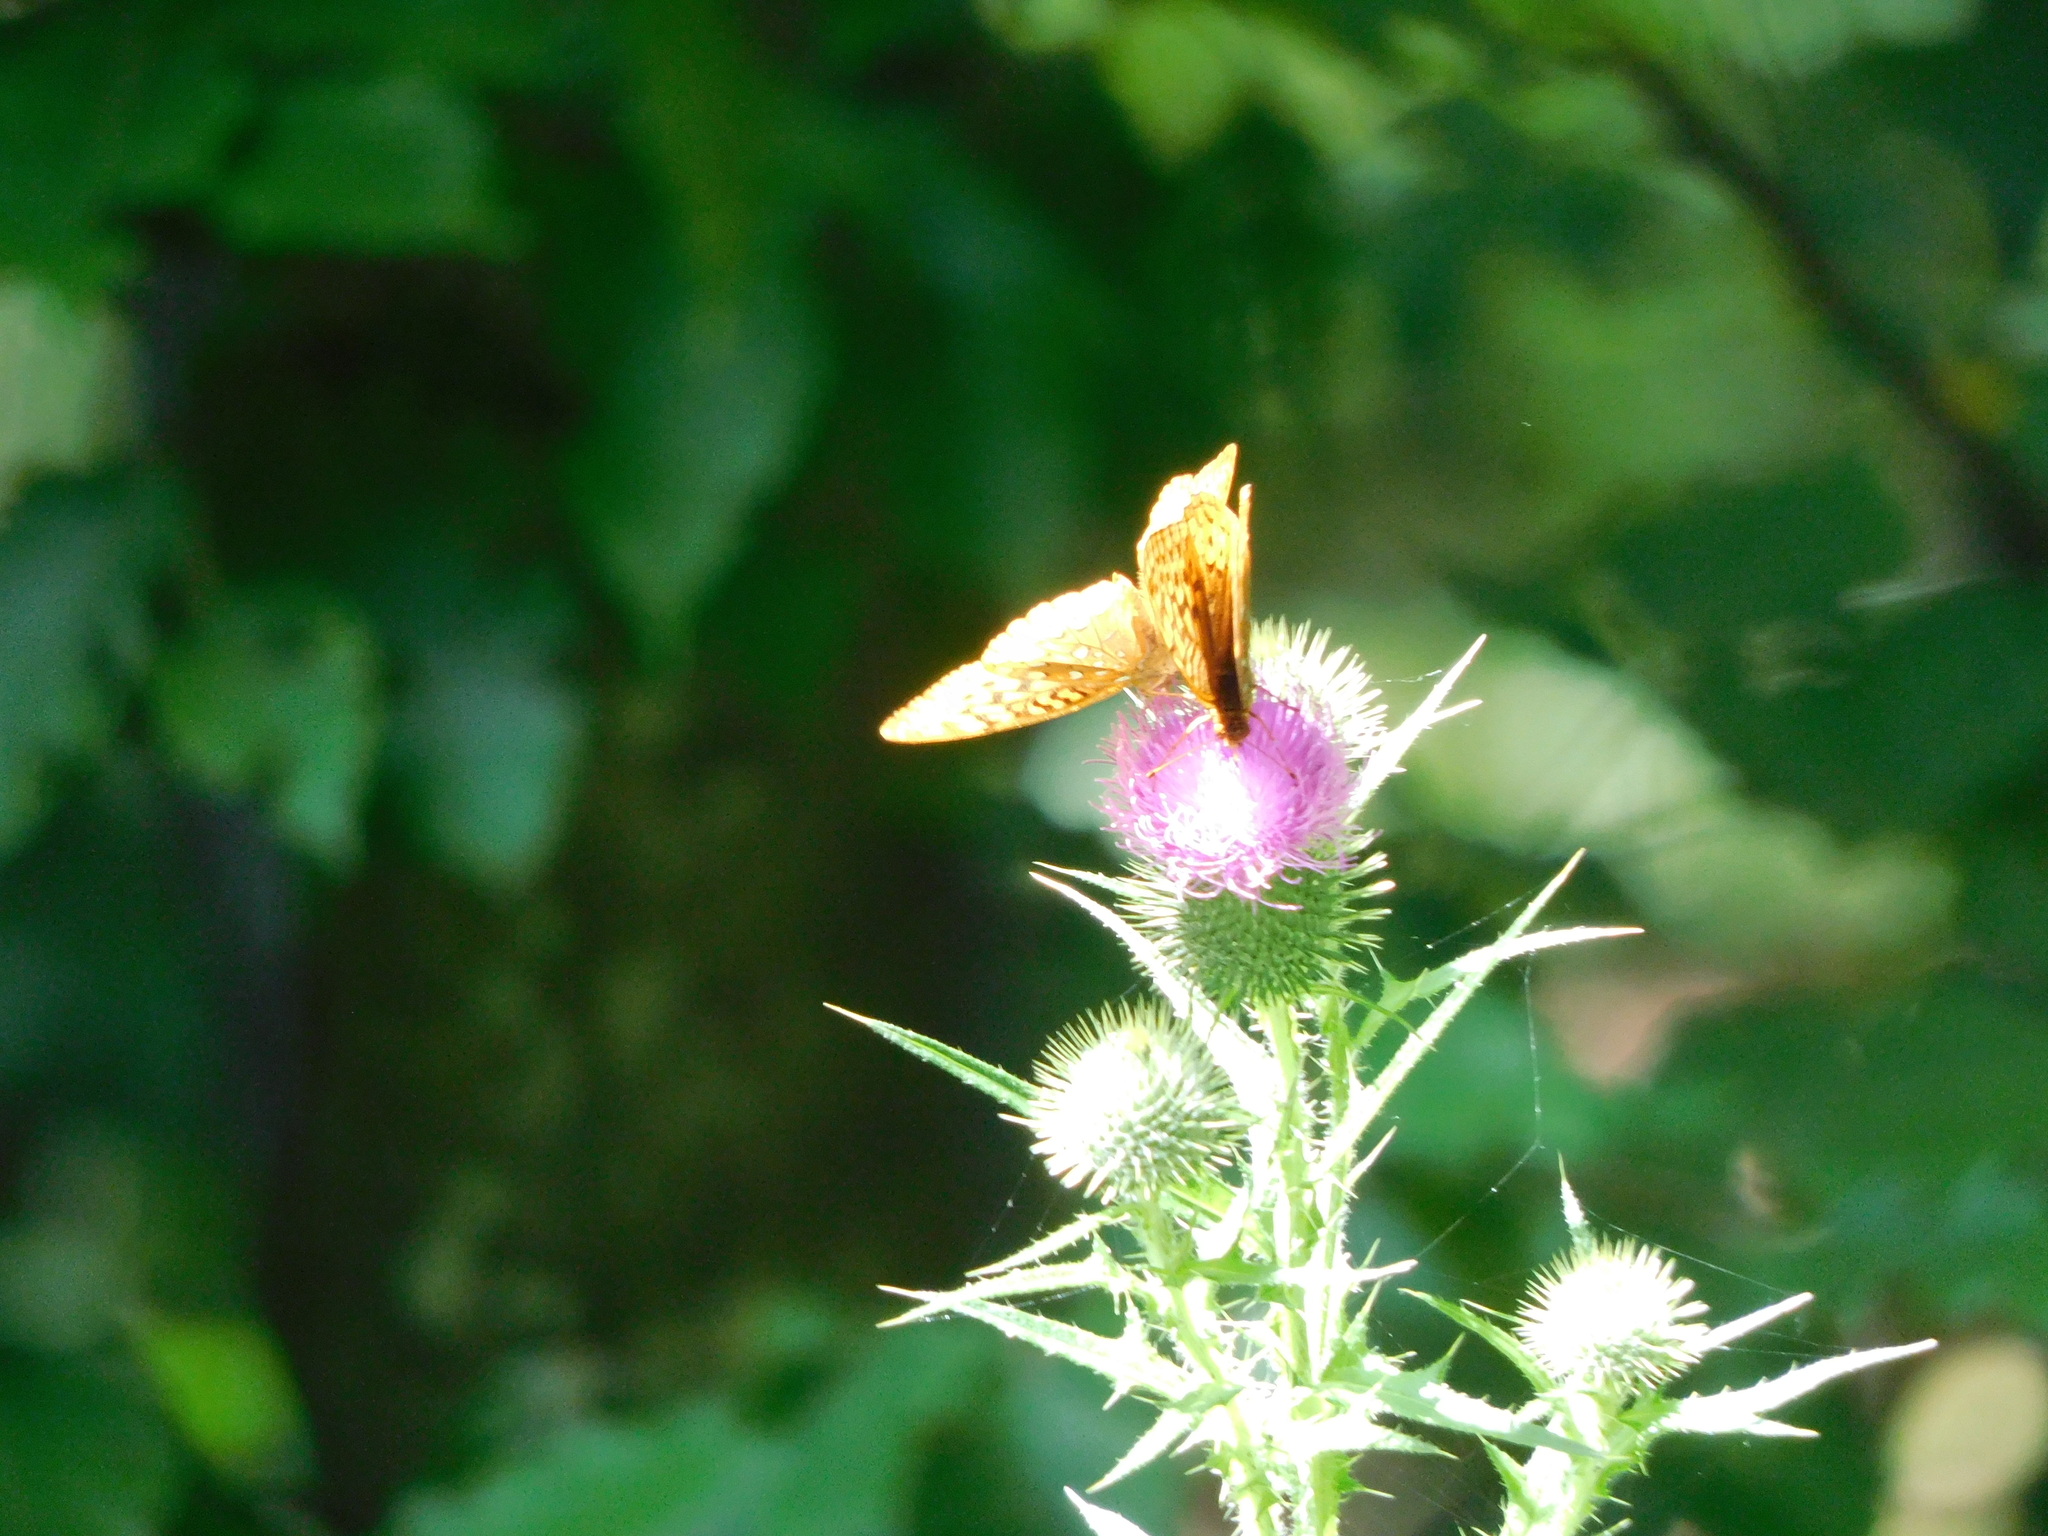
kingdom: Animalia
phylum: Arthropoda
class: Insecta
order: Lepidoptera
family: Nymphalidae
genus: Speyeria
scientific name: Speyeria cybele
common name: Great spangled fritillary
